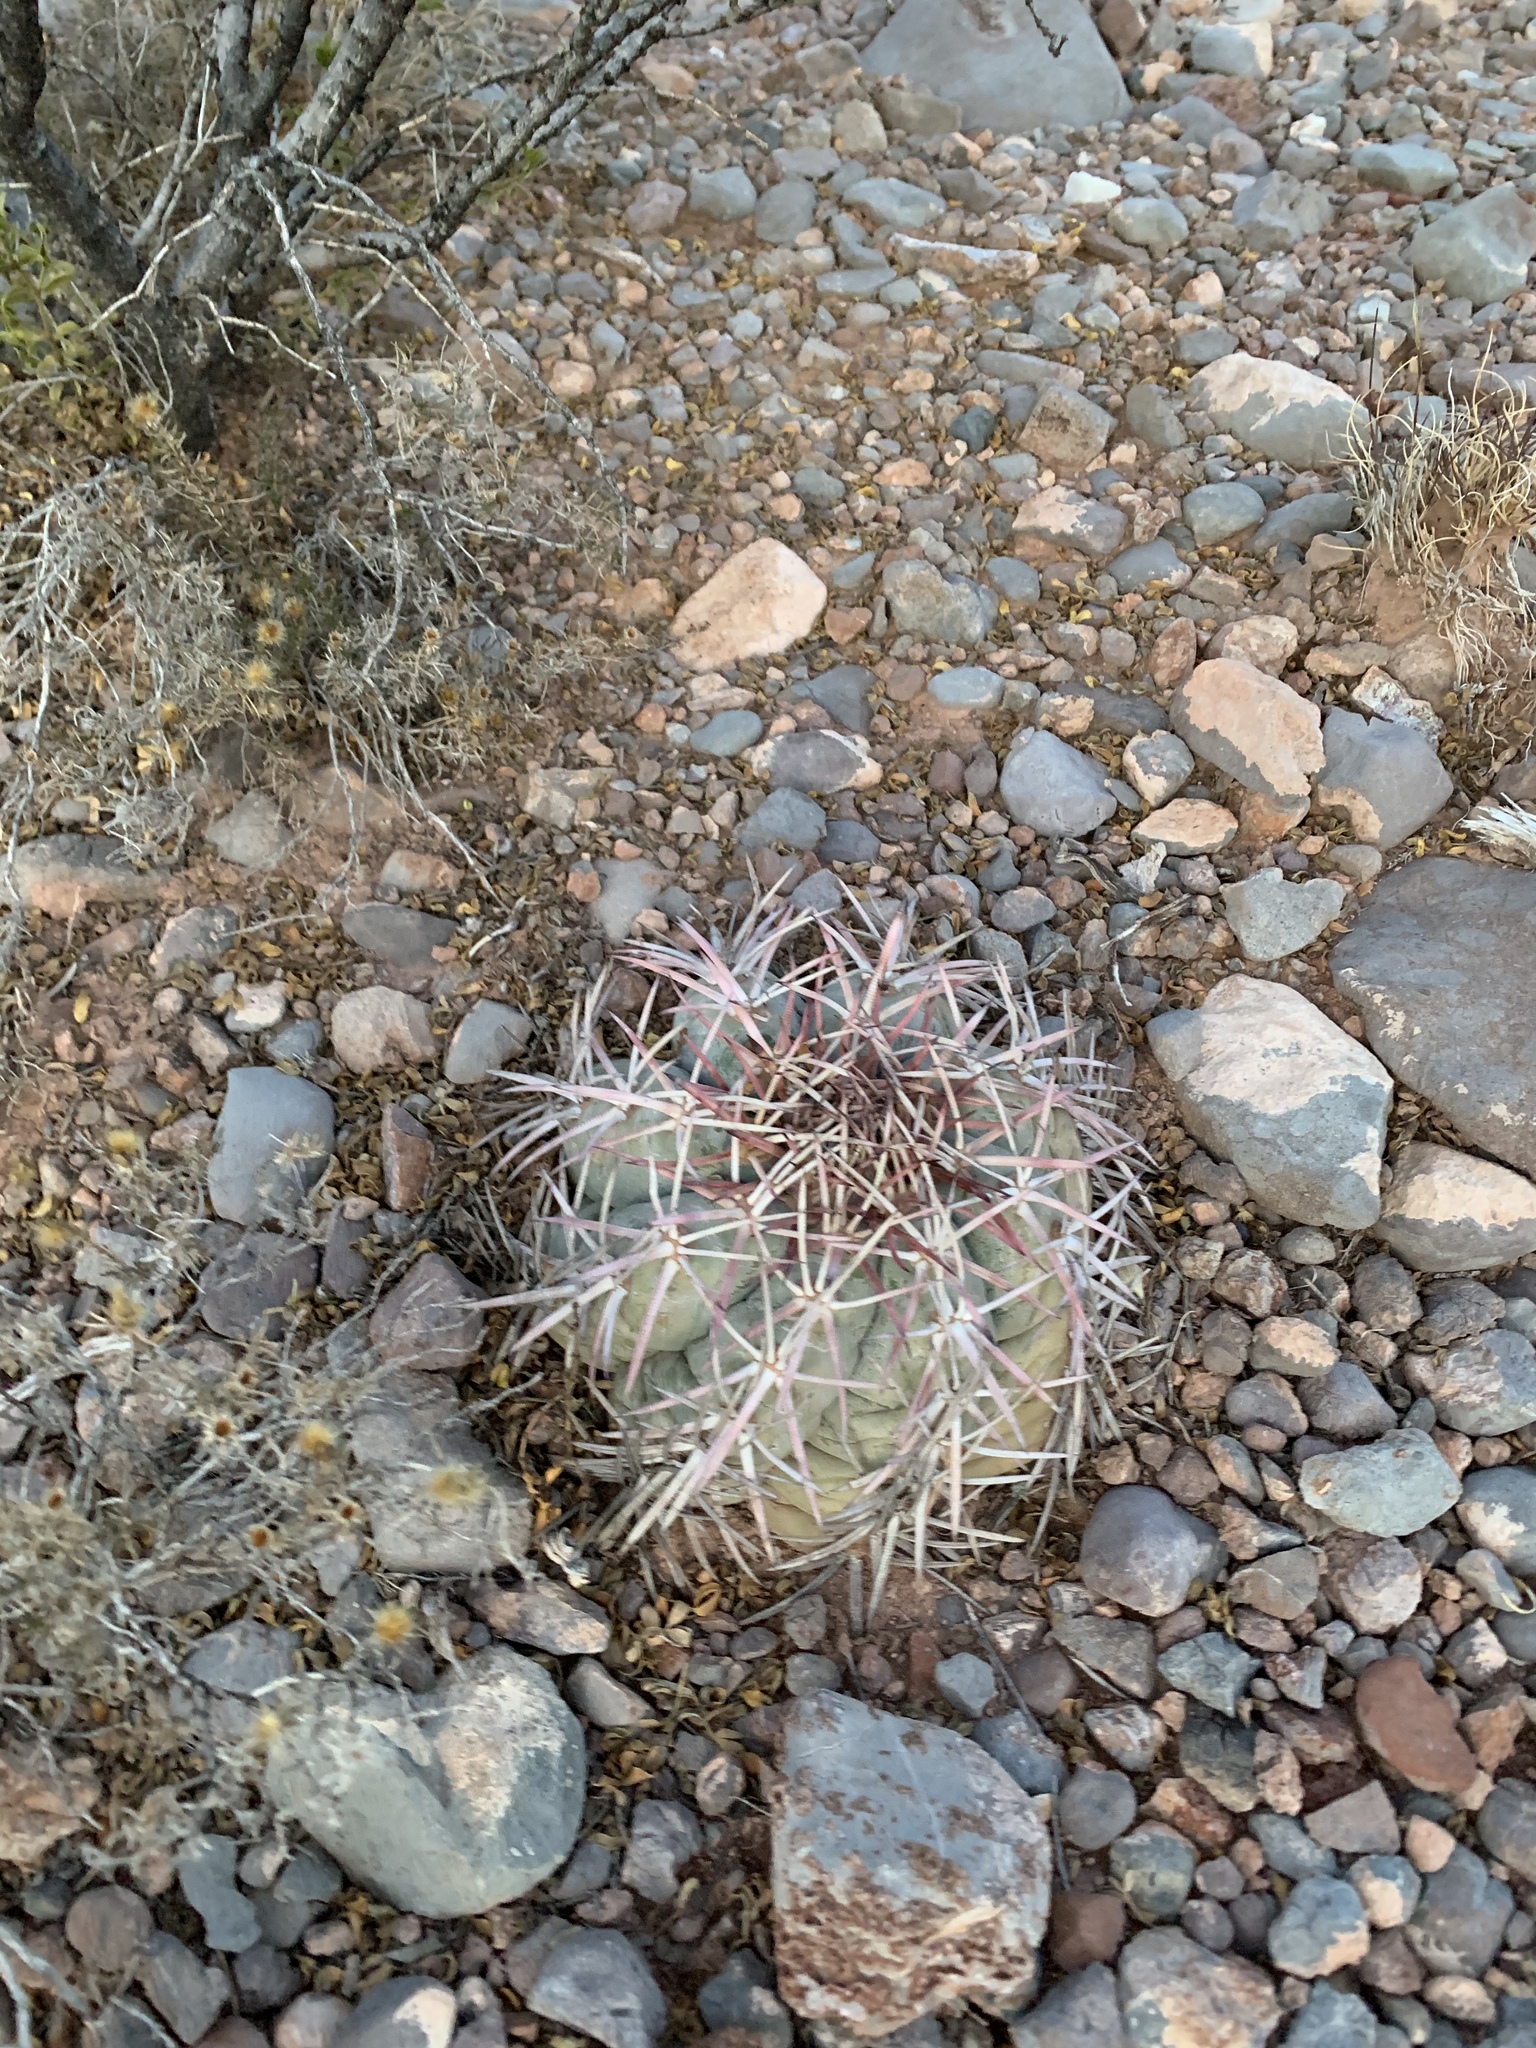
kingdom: Plantae
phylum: Tracheophyta
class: Magnoliopsida
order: Caryophyllales
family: Cactaceae
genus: Echinocactus
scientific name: Echinocactus horizonthalonius
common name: Devilshead
